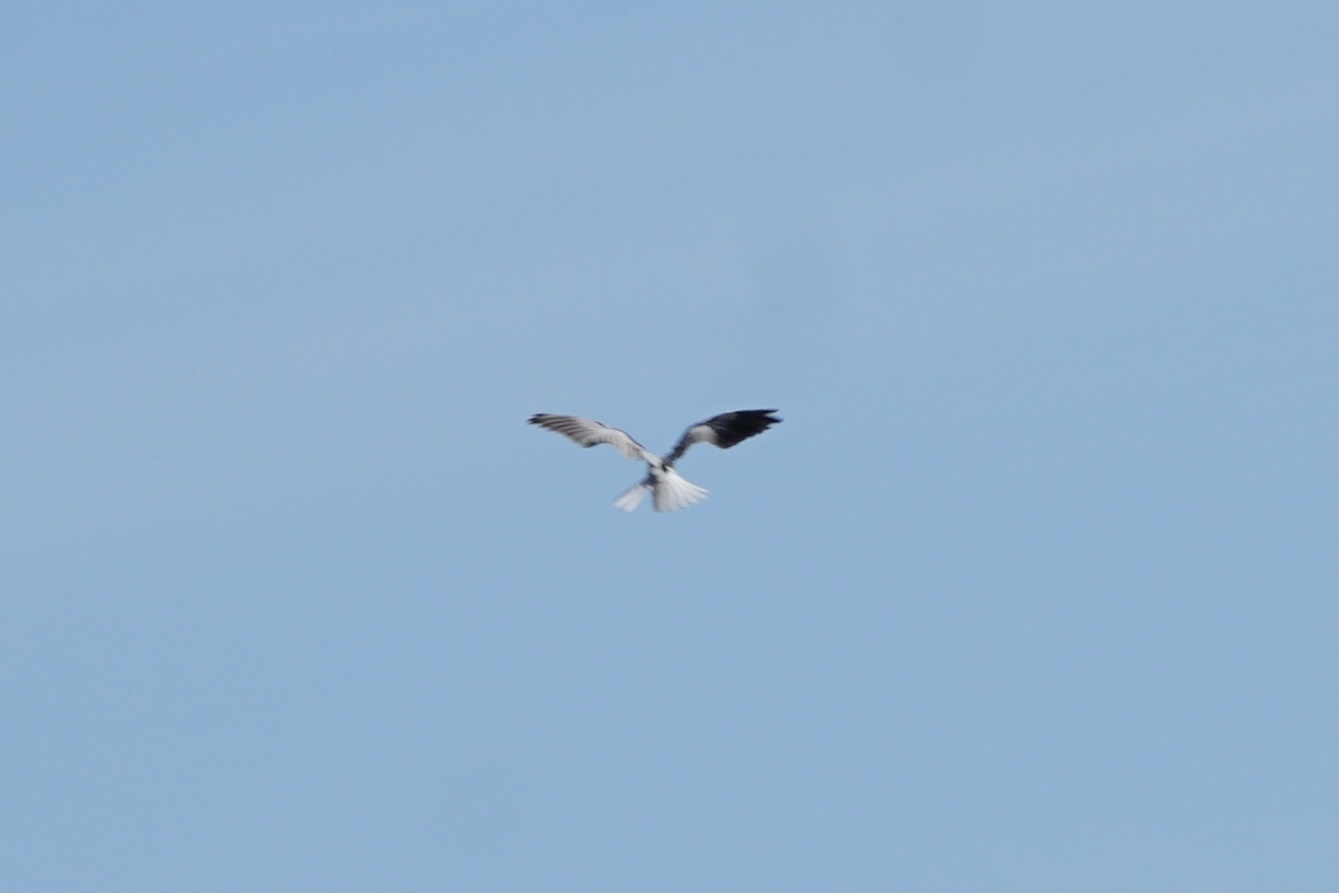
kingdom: Animalia
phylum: Chordata
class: Aves
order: Accipitriformes
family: Accipitridae
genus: Elanus
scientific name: Elanus leucurus
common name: White-tailed kite
